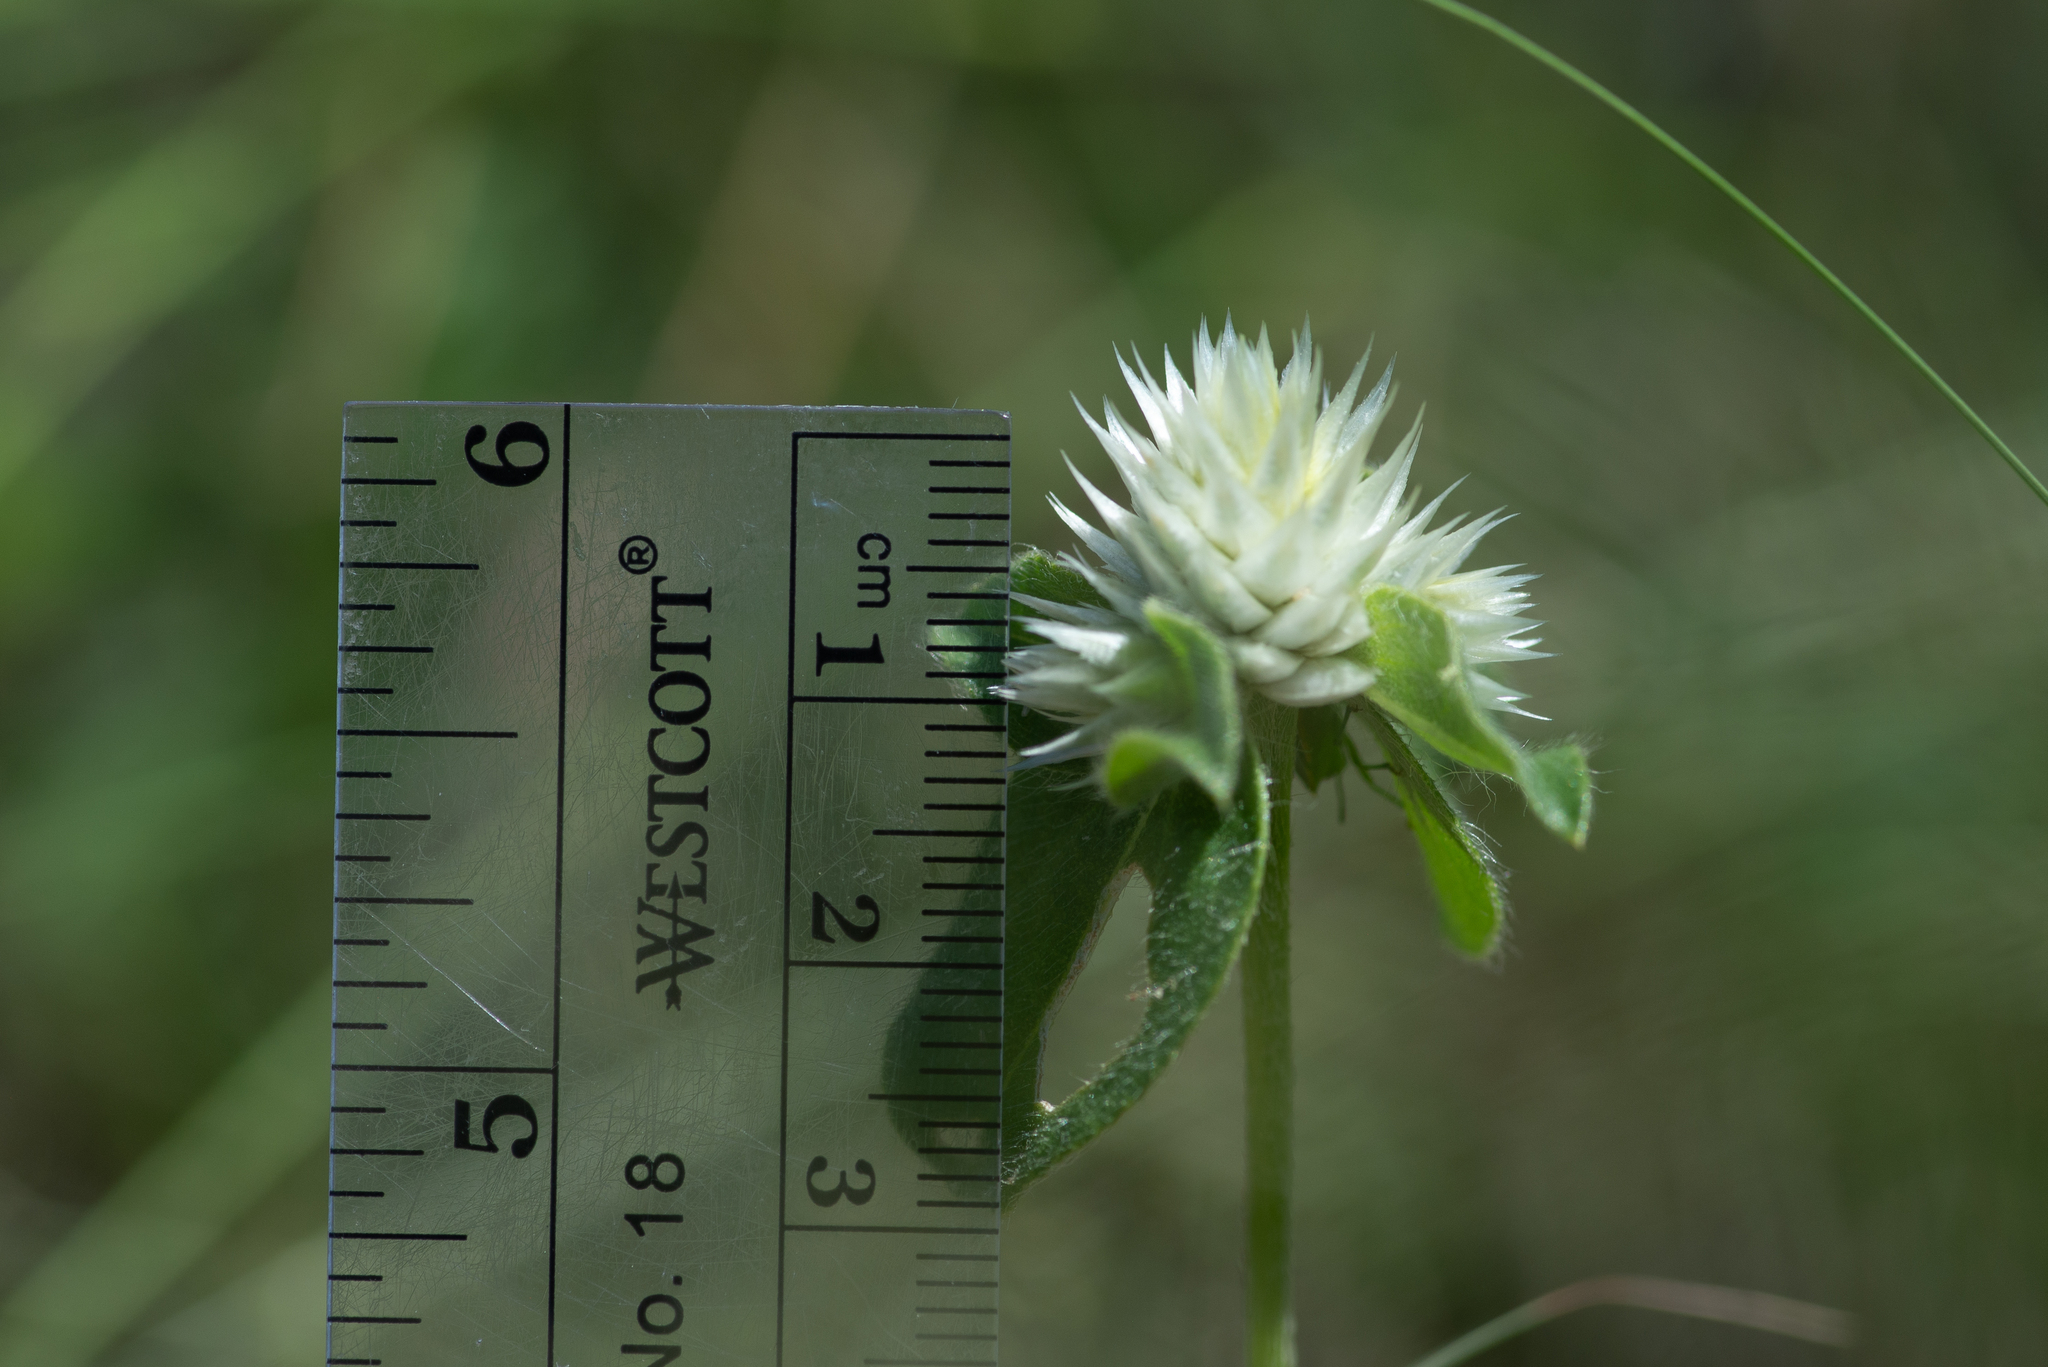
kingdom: Plantae
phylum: Tracheophyta
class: Magnoliopsida
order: Caryophyllales
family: Amaranthaceae
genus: Gomphrena
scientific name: Gomphrena nitida
